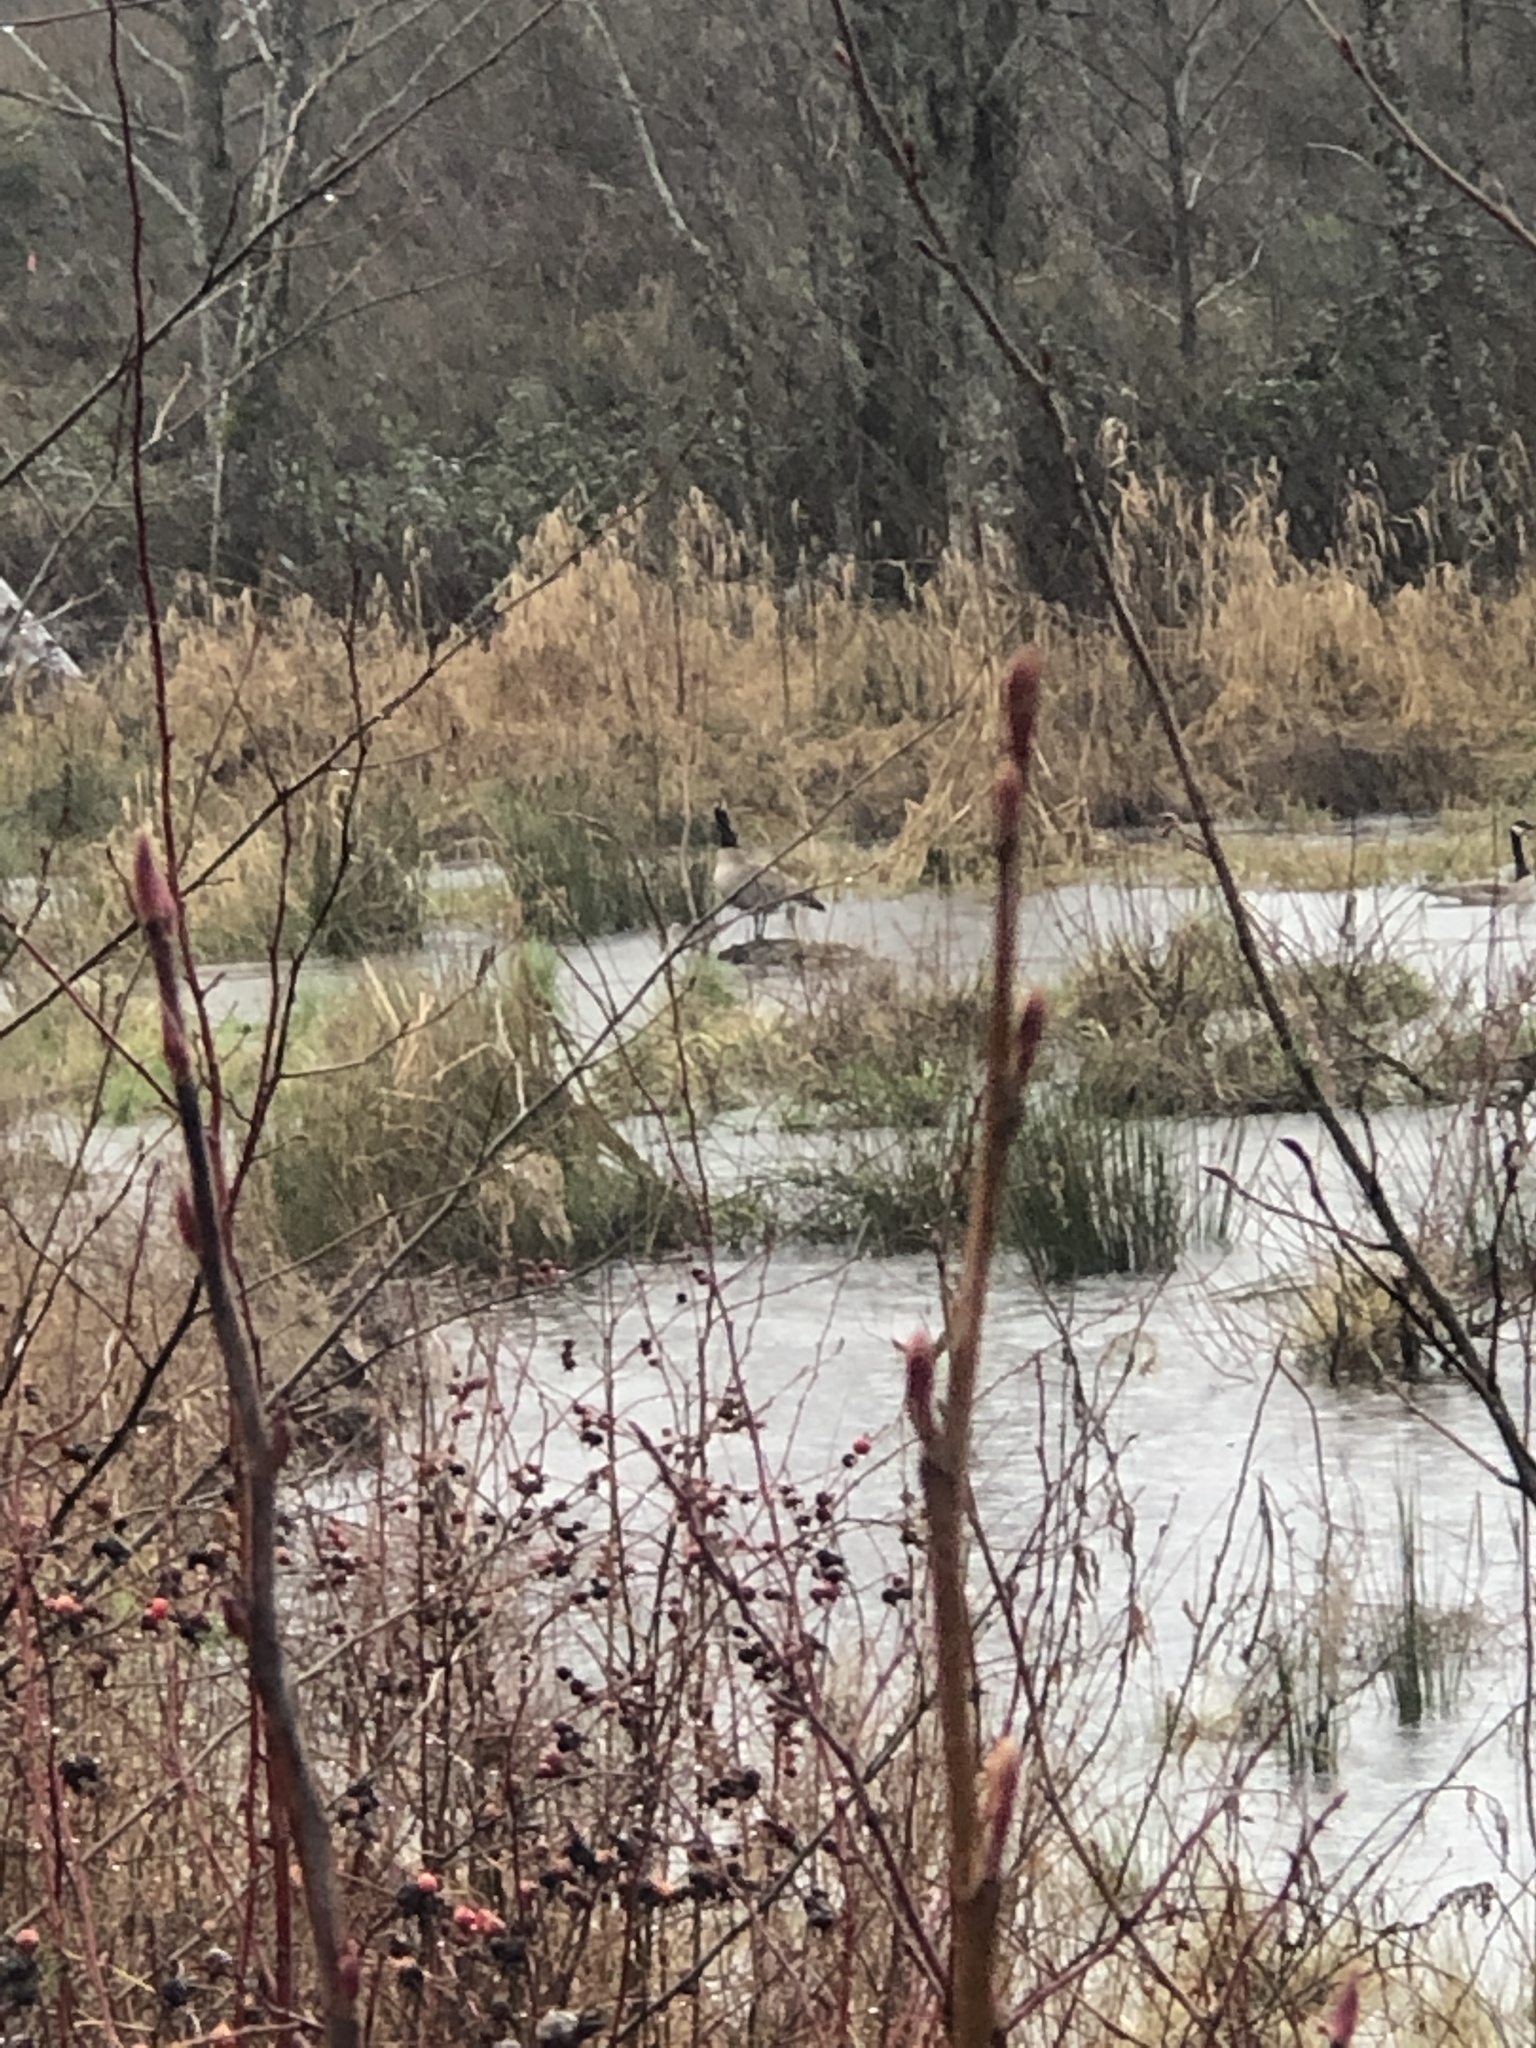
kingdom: Animalia
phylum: Chordata
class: Aves
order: Anseriformes
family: Anatidae
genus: Branta
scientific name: Branta canadensis
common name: Canada goose
